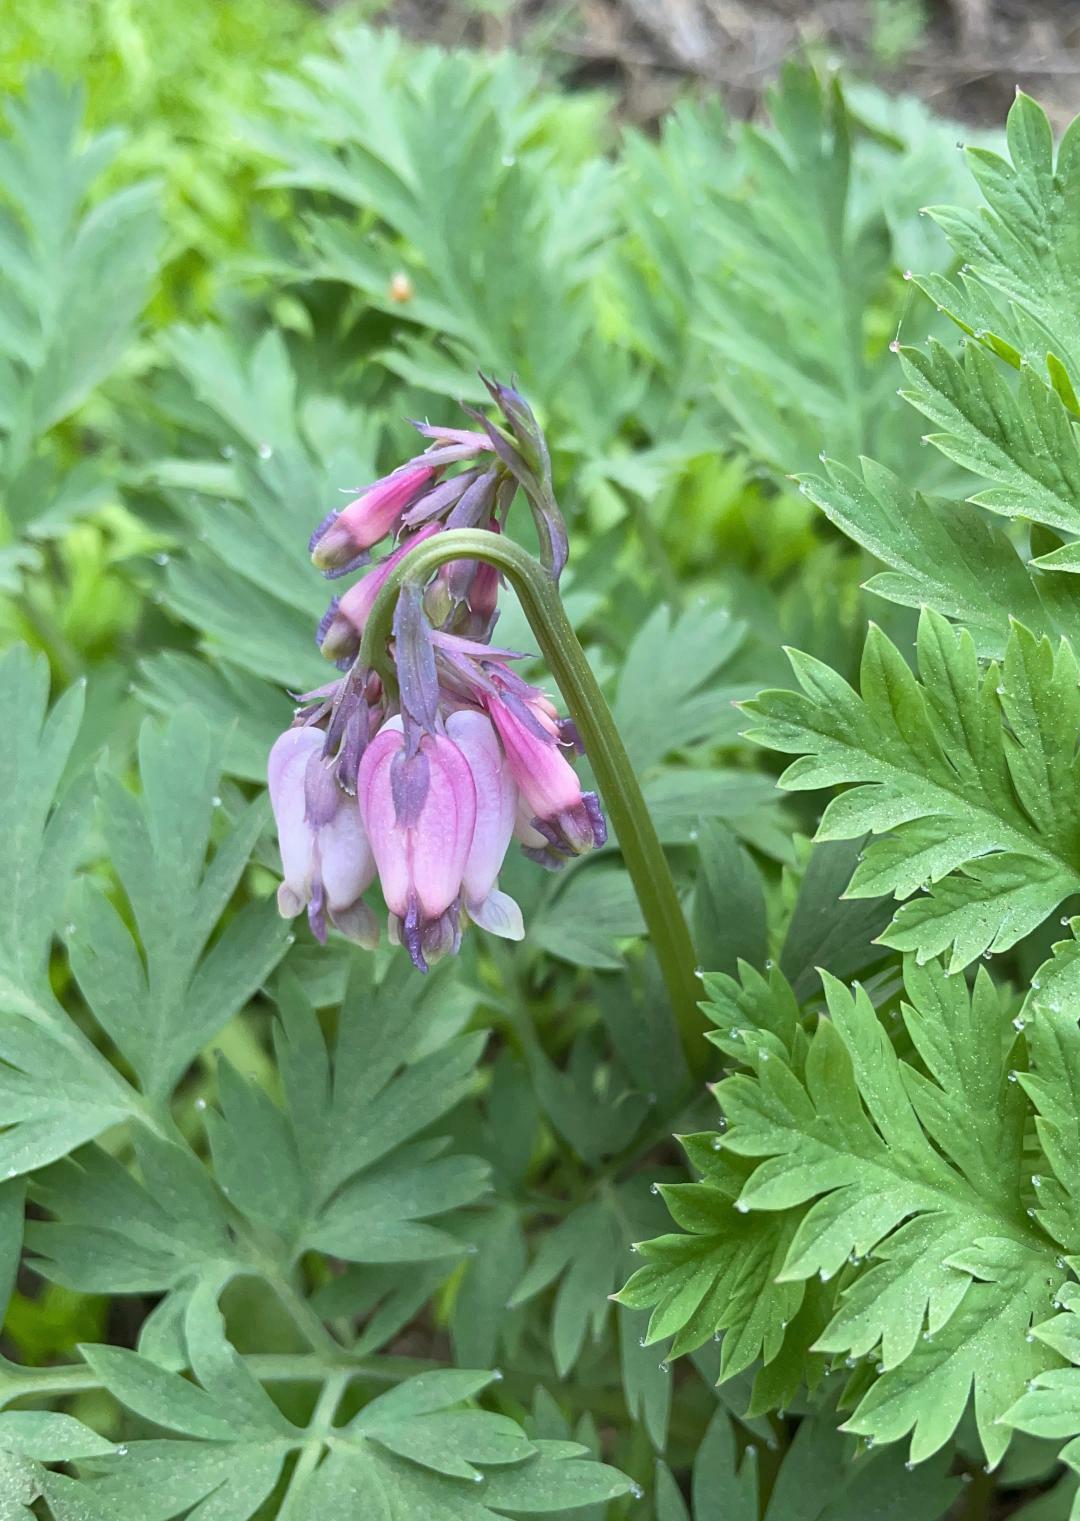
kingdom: Plantae
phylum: Tracheophyta
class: Magnoliopsida
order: Ranunculales
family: Papaveraceae
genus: Dicentra
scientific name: Dicentra formosa
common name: Bleeding-heart
